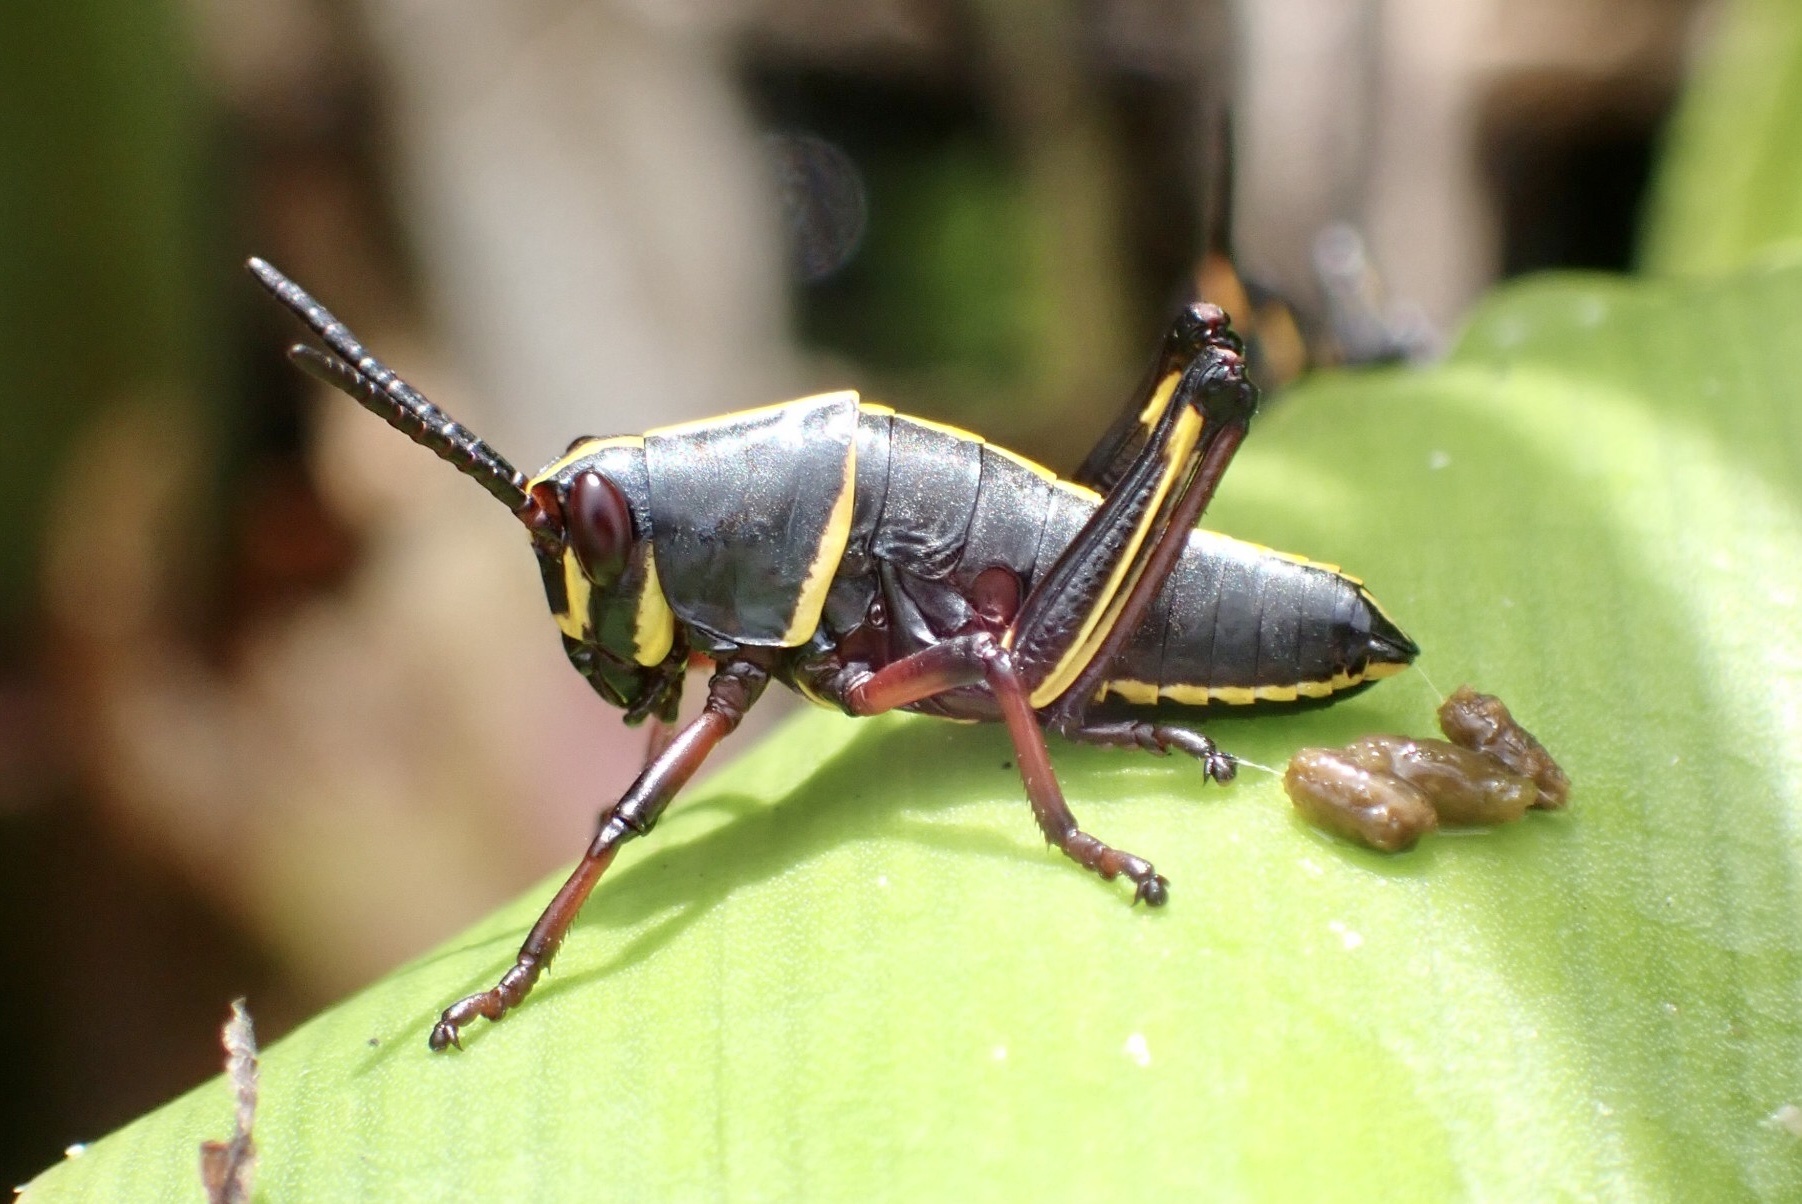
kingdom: Animalia
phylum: Arthropoda
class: Insecta
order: Orthoptera
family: Romaleidae
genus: Romalea
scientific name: Romalea microptera
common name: Eastern lubber grasshopper
